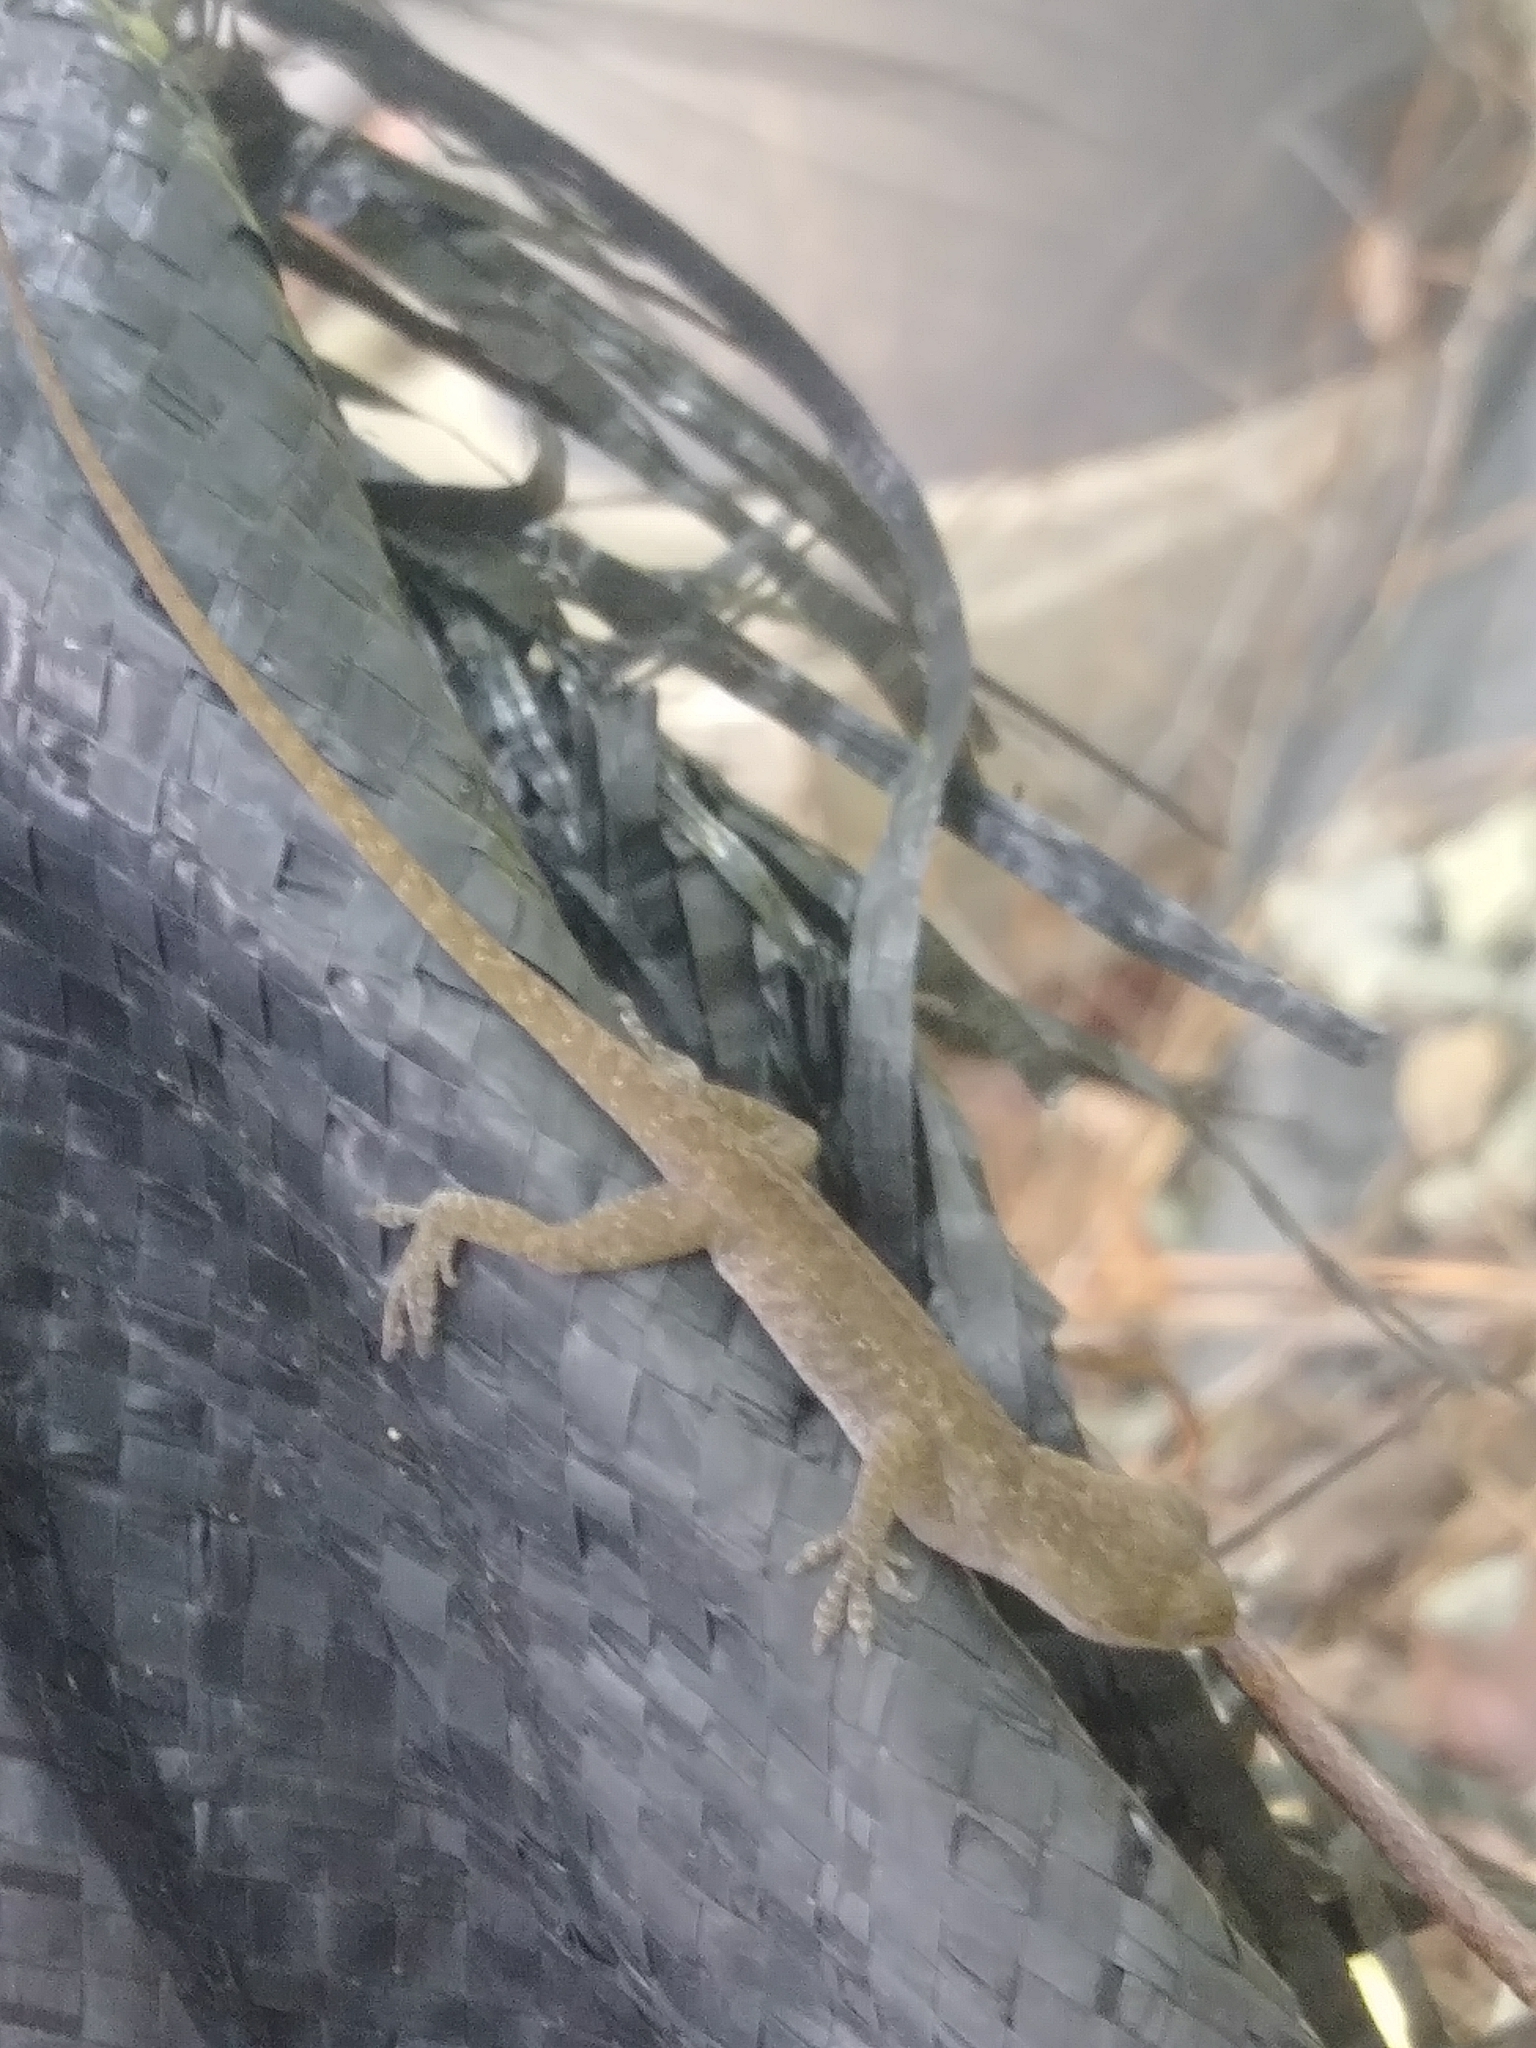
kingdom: Animalia
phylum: Chordata
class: Squamata
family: Dactyloidae
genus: Anolis
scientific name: Anolis carolinensis
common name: Green anole
